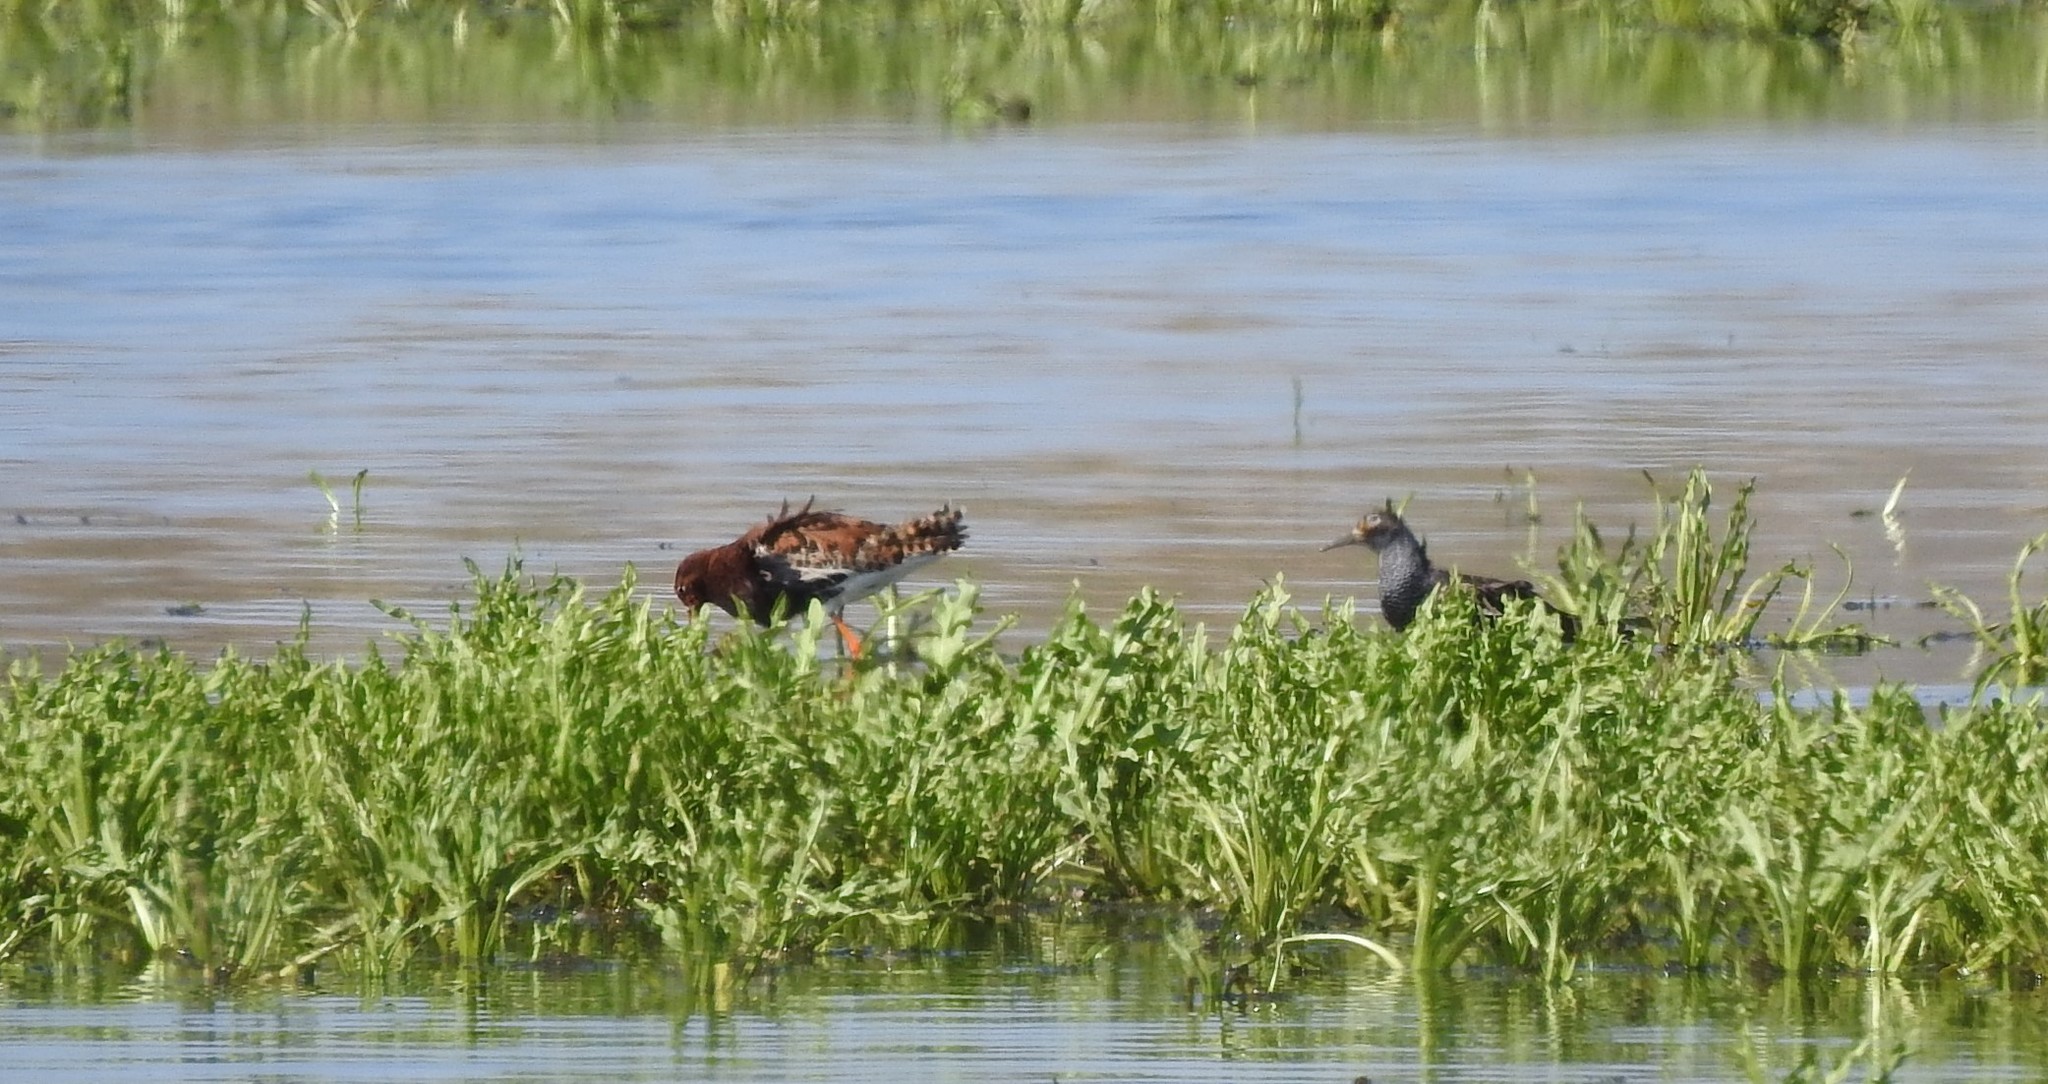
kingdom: Animalia
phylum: Chordata
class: Aves
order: Charadriiformes
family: Scolopacidae
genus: Calidris
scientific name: Calidris pugnax
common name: Ruff
